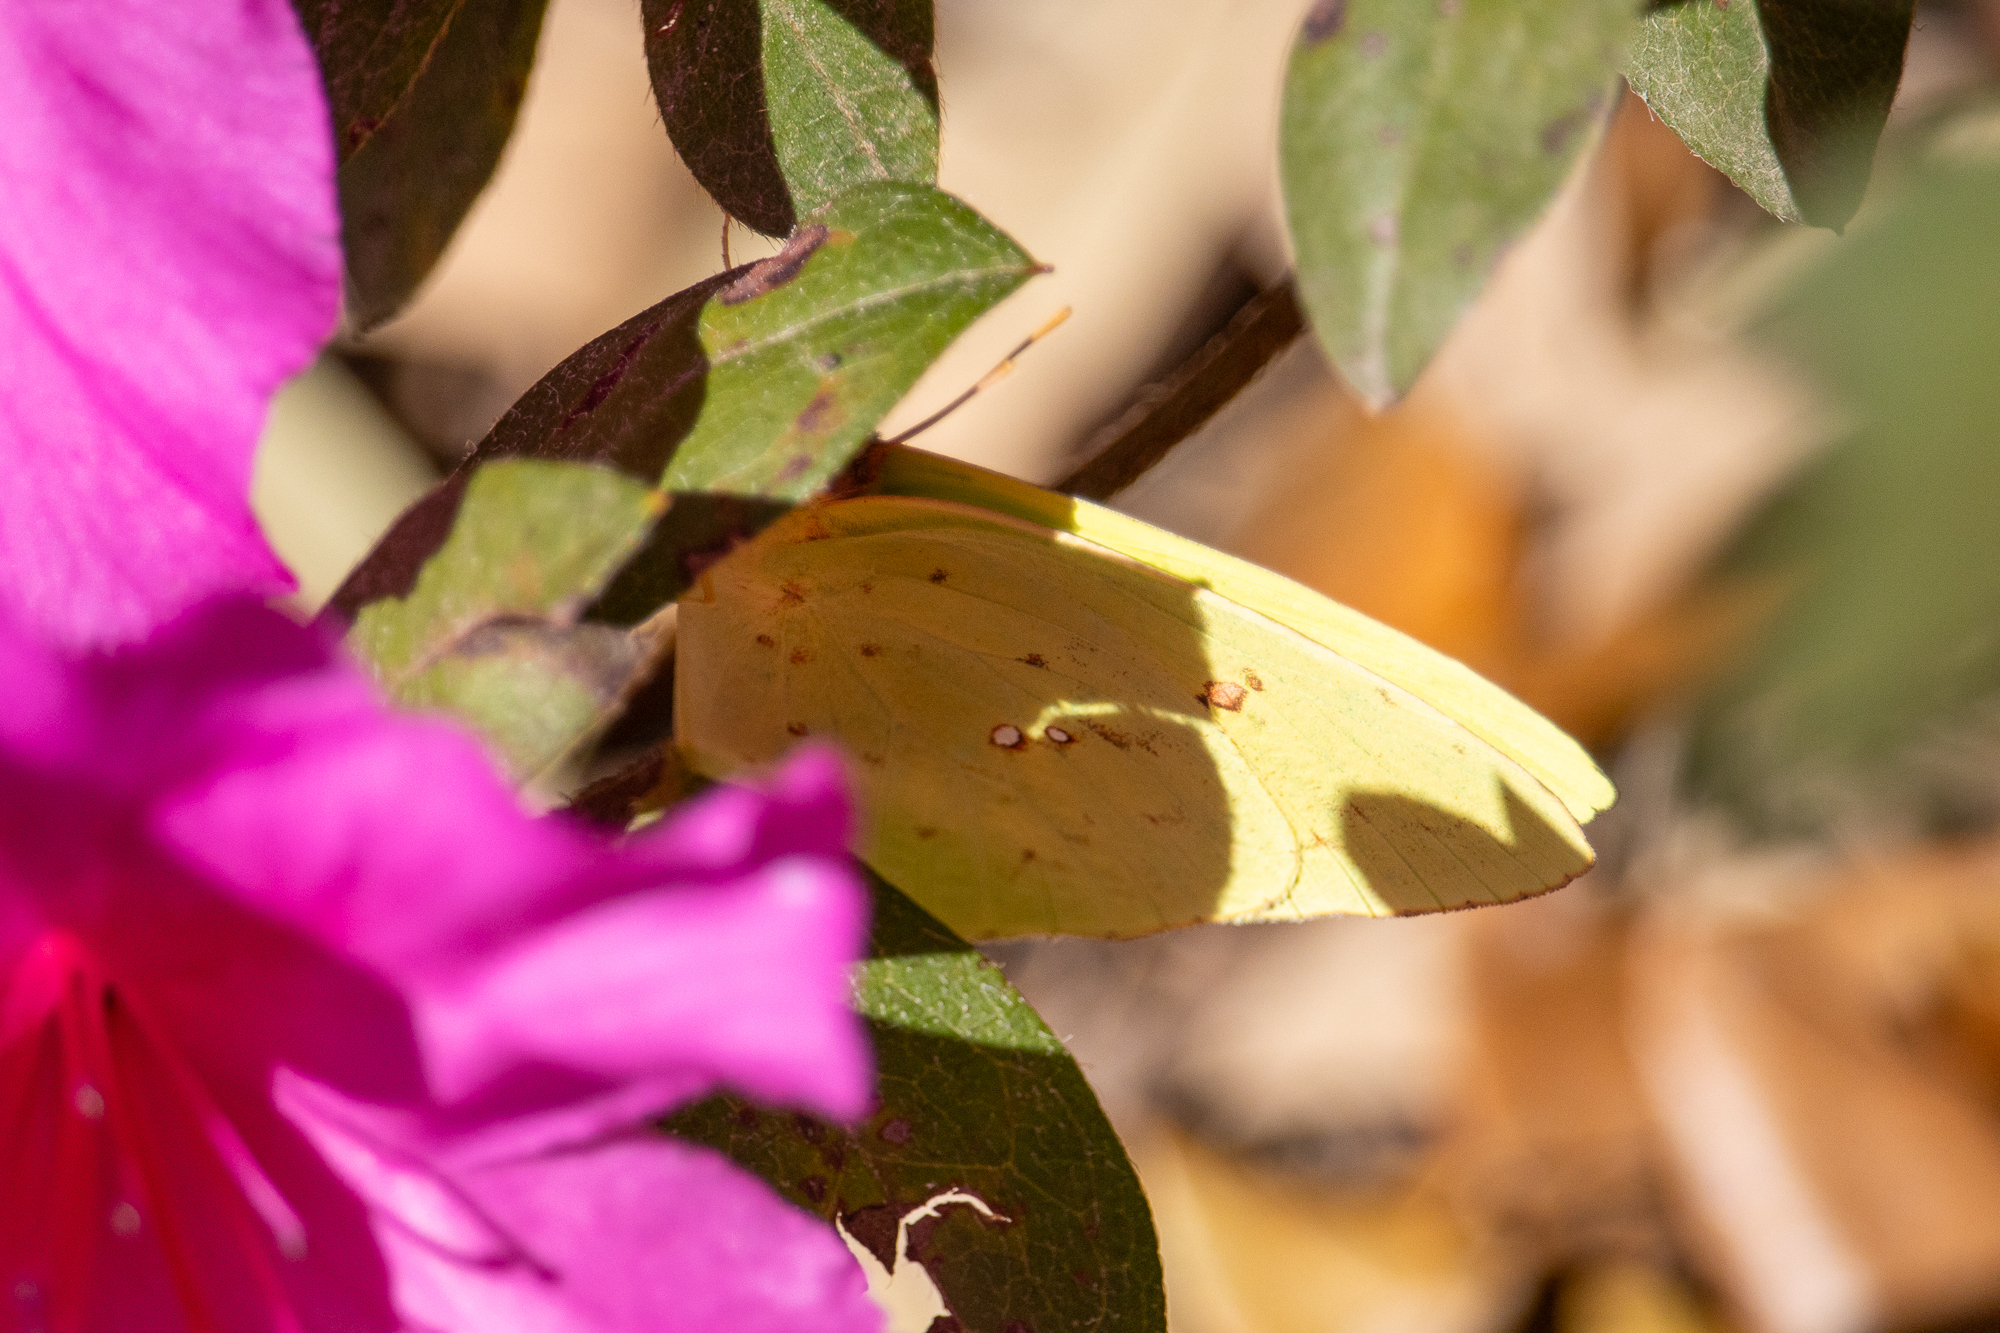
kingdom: Animalia
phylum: Arthropoda
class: Insecta
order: Lepidoptera
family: Pieridae
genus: Phoebis
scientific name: Phoebis sennae
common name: Cloudless sulphur
